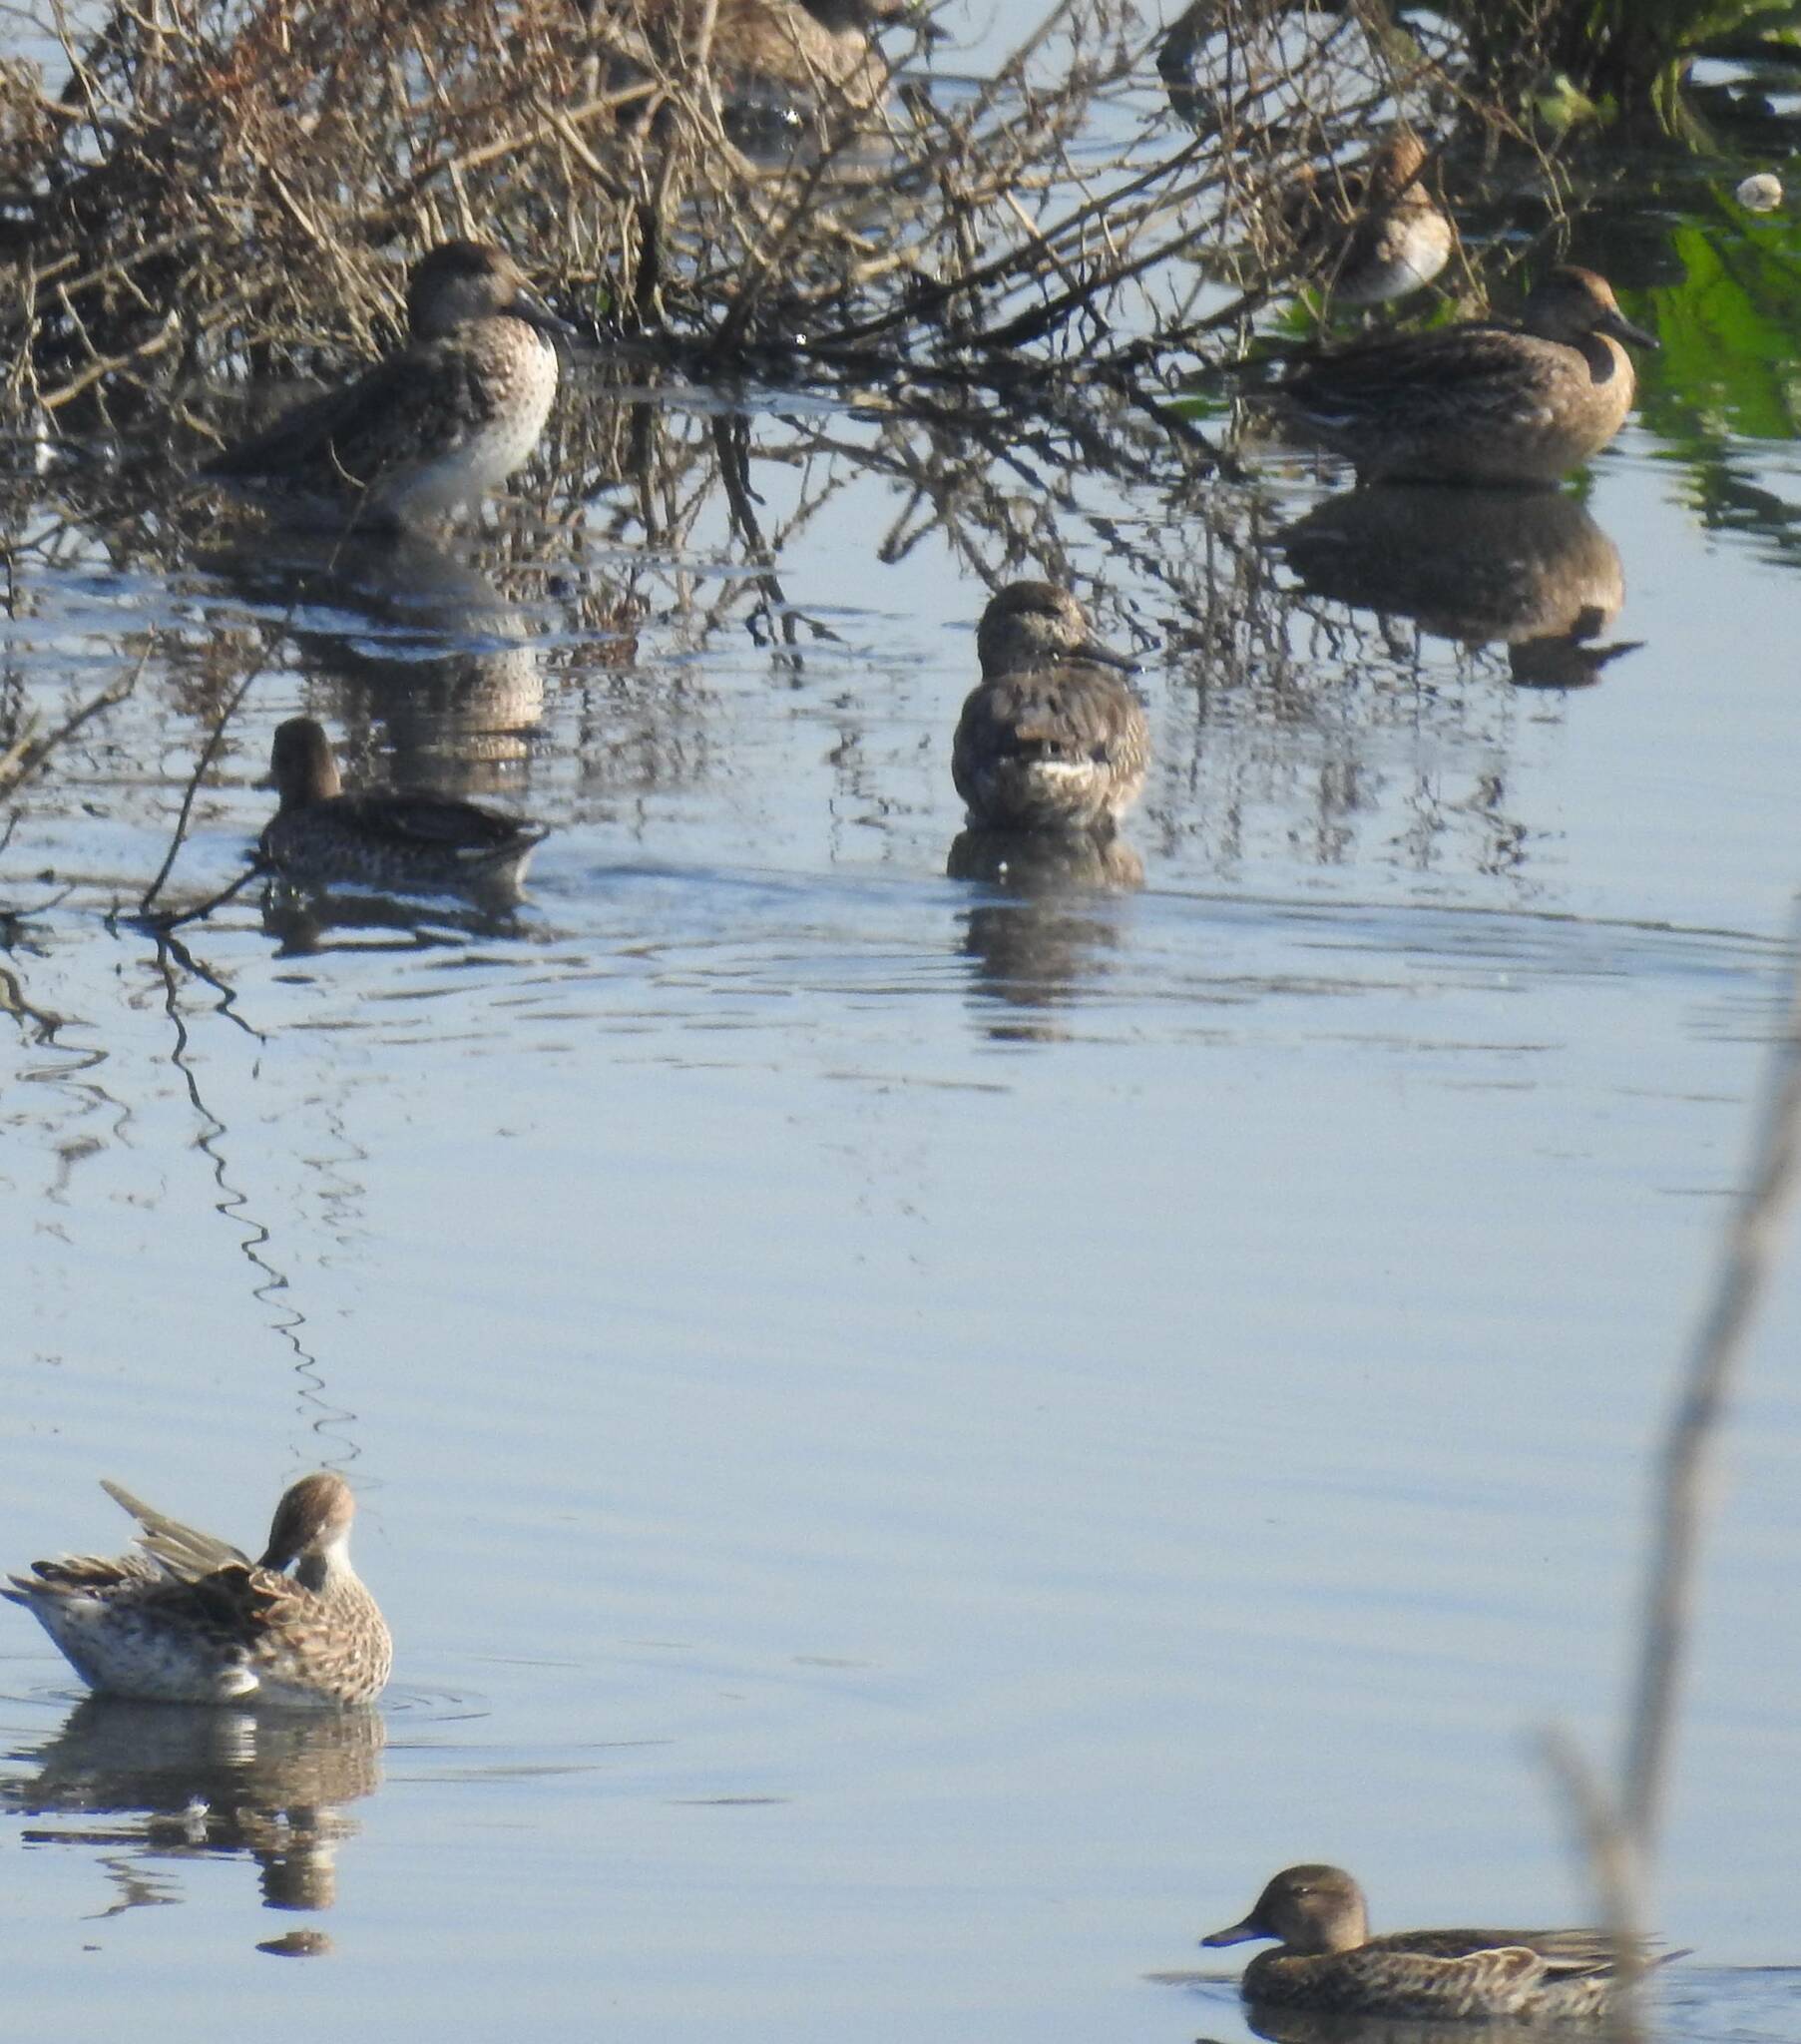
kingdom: Animalia
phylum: Chordata
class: Aves
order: Anseriformes
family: Anatidae
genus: Anas
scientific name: Anas crecca
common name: Eurasian teal
